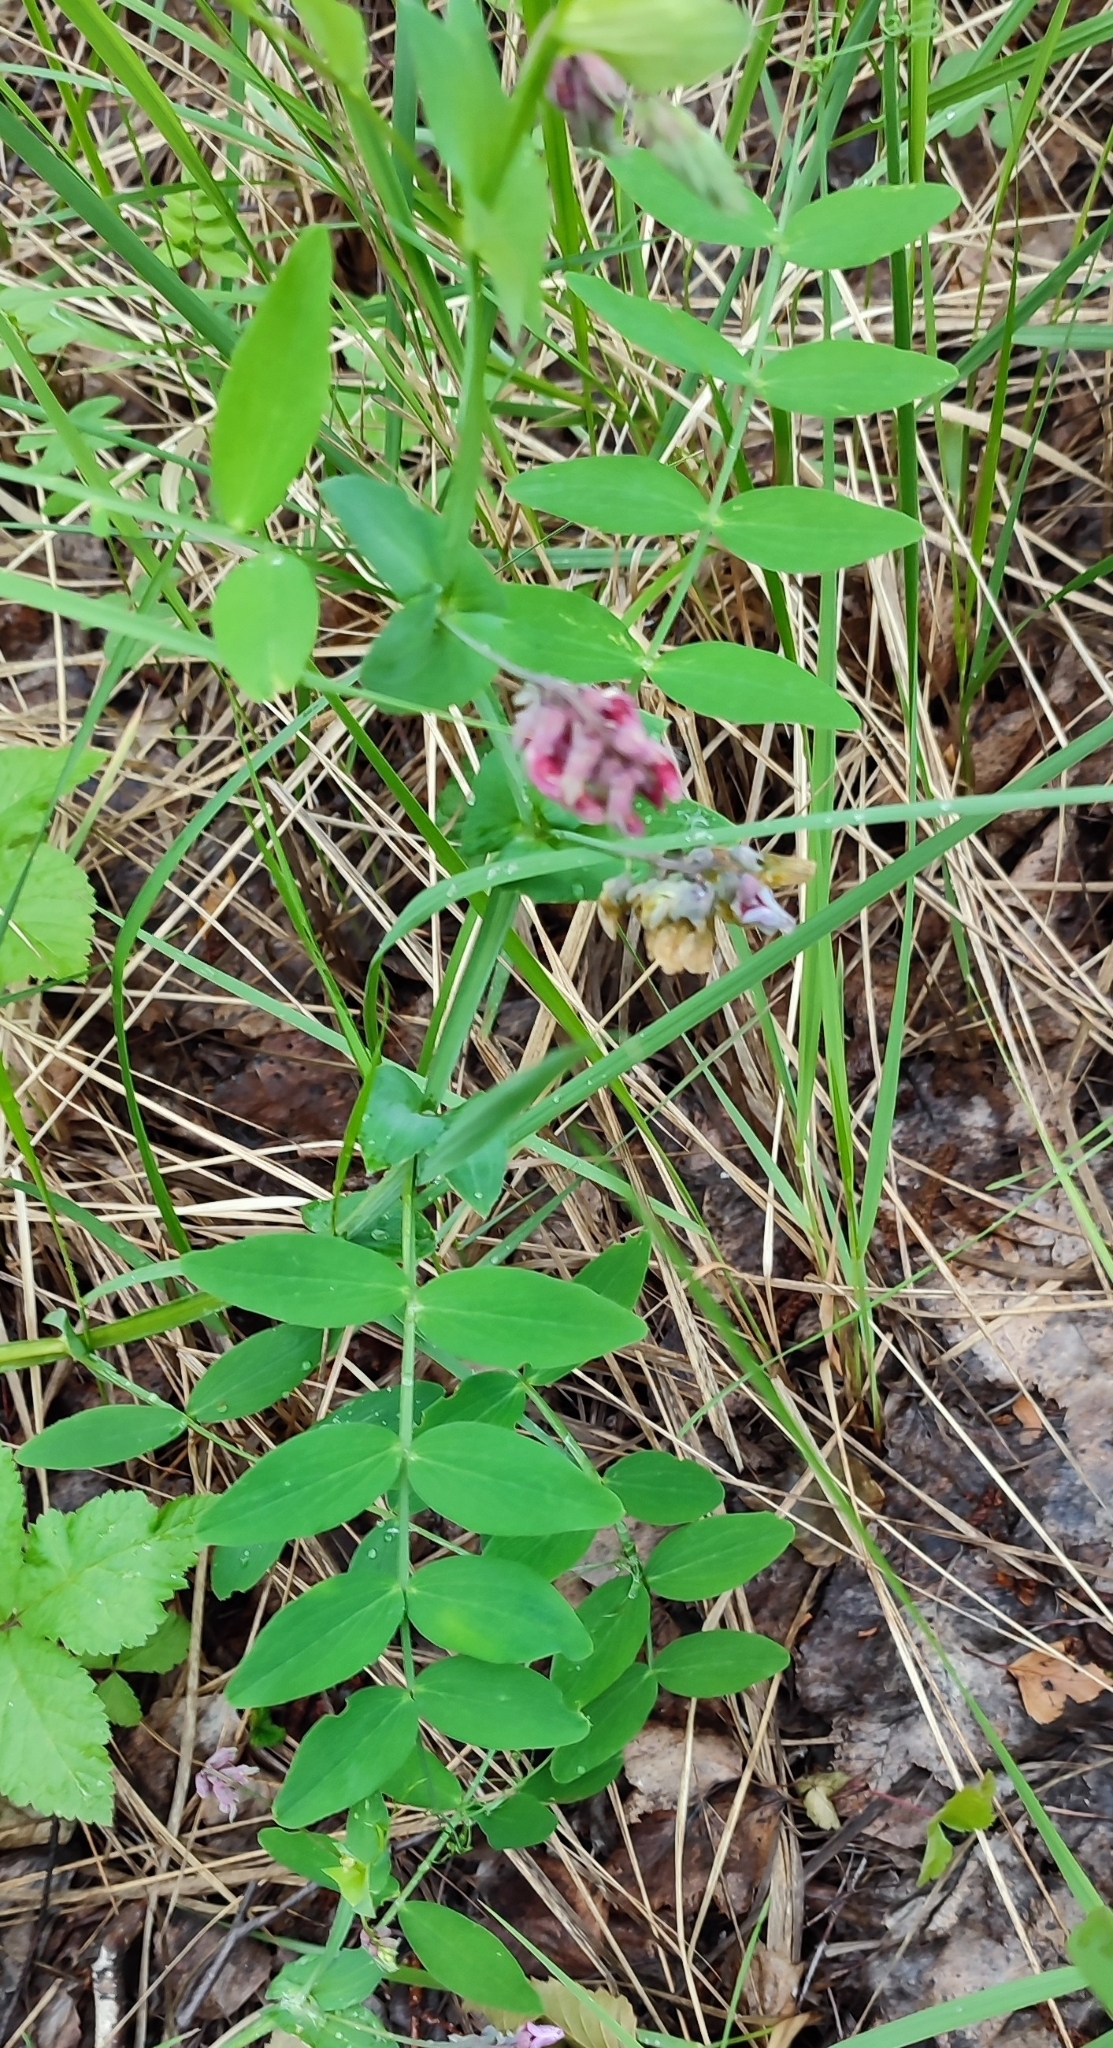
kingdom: Plantae
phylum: Tracheophyta
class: Magnoliopsida
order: Fabales
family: Fabaceae
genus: Lathyrus
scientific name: Lathyrus pisiformis
